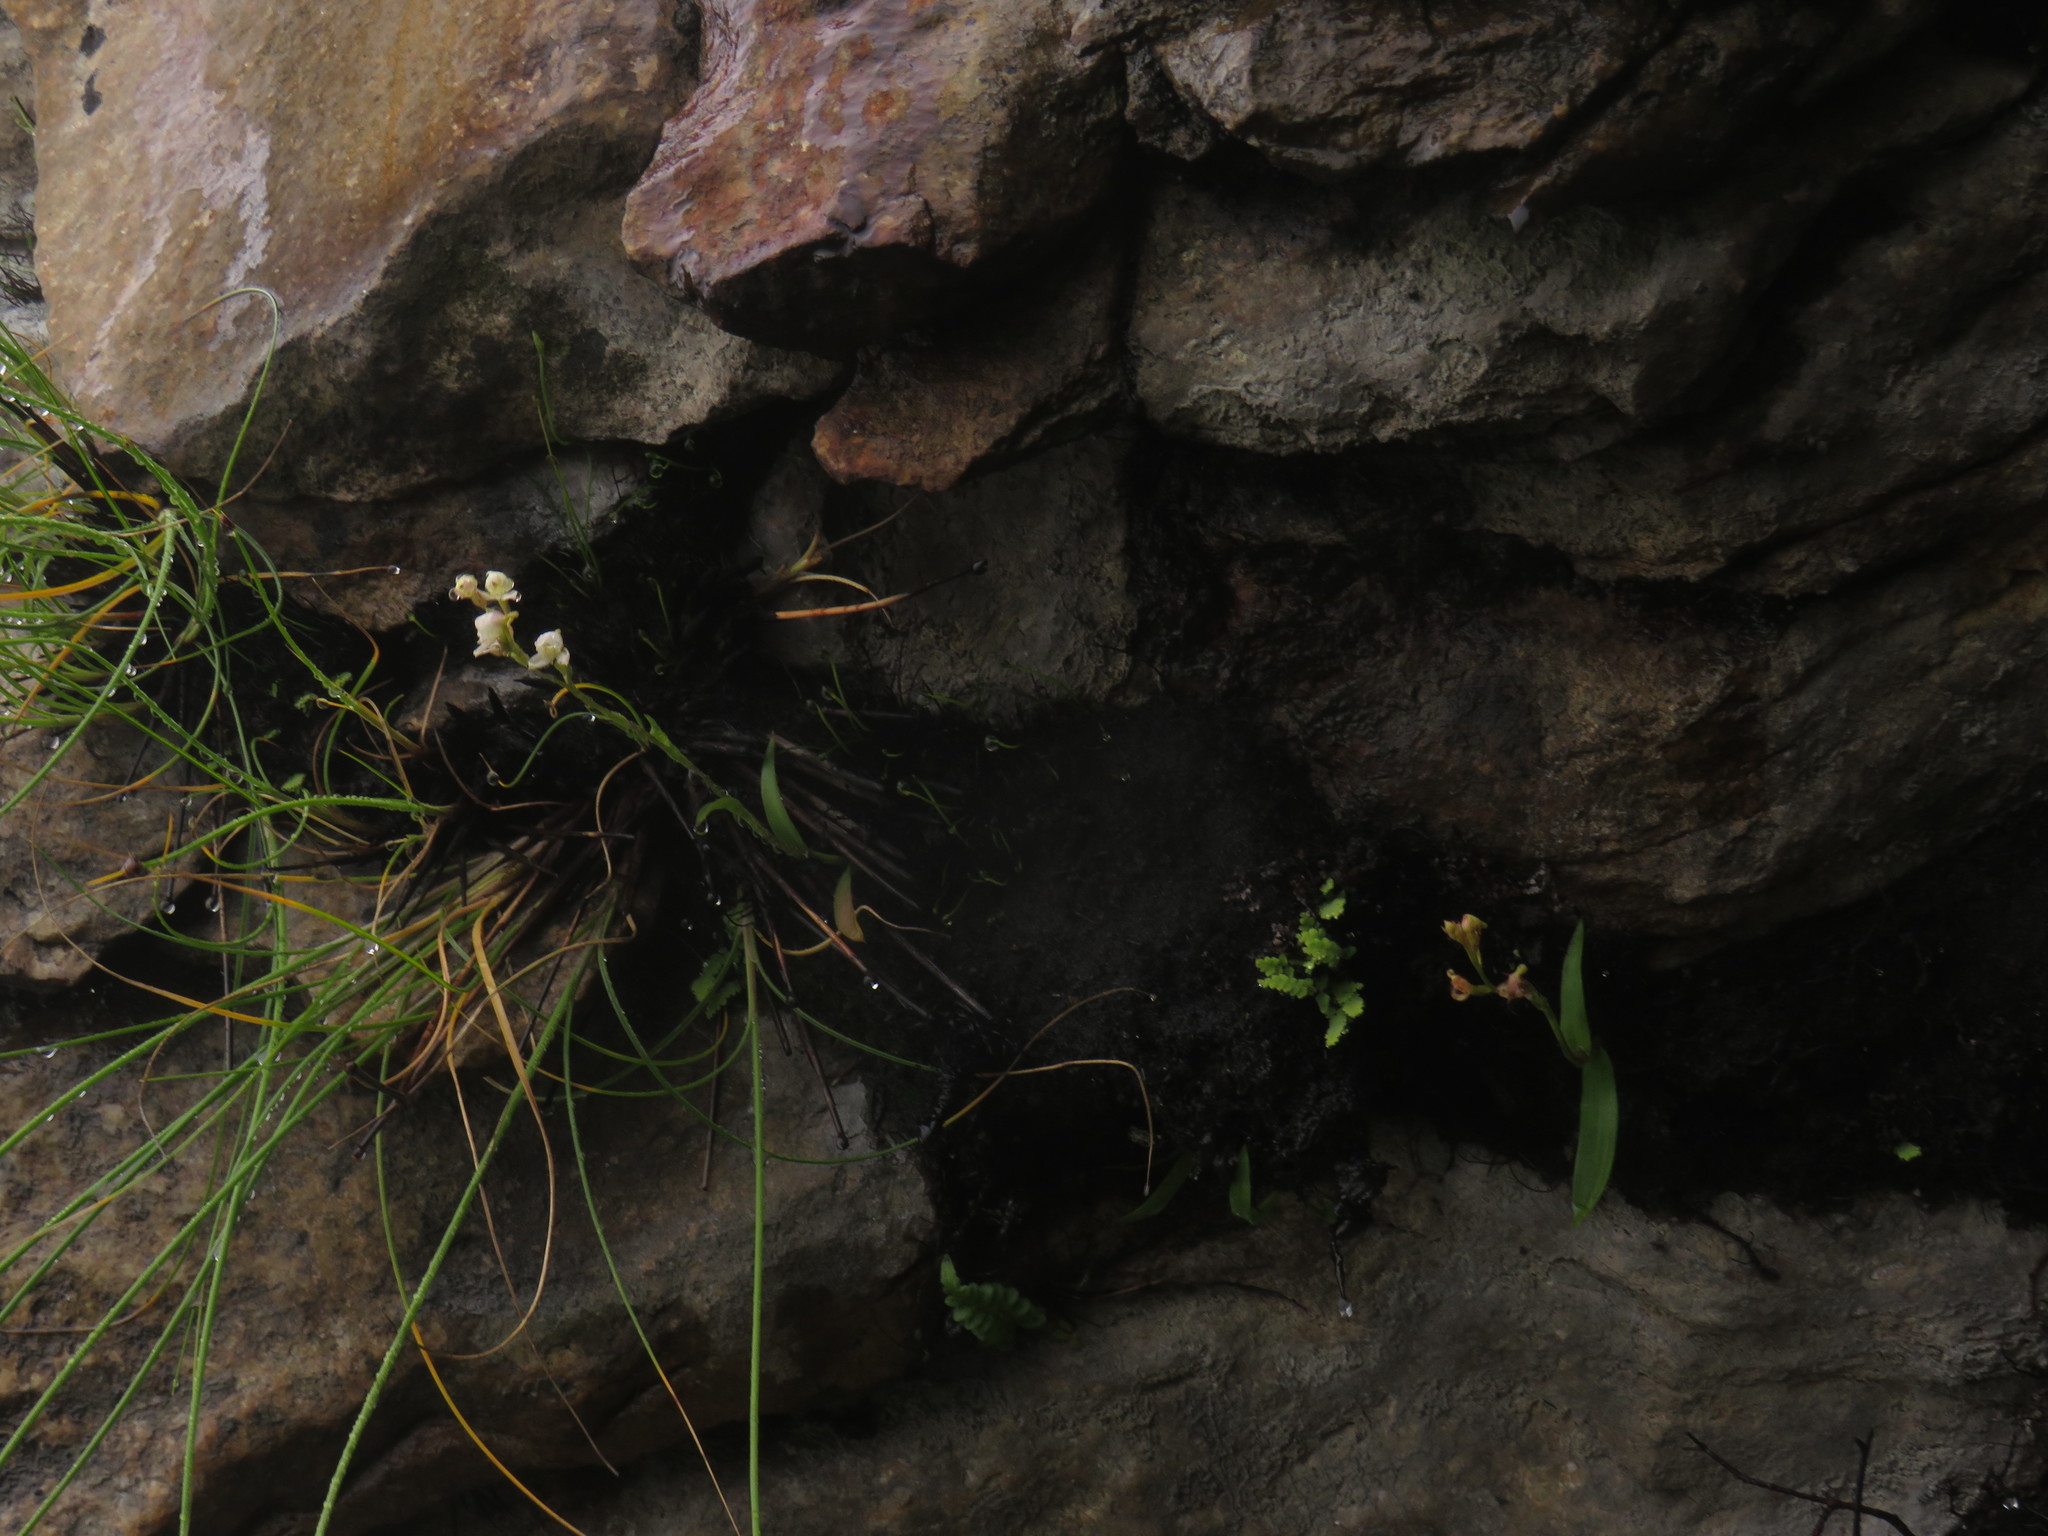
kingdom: Plantae
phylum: Tracheophyta
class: Liliopsida
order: Asparagales
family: Orchidaceae
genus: Disa
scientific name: Disa uncinata
